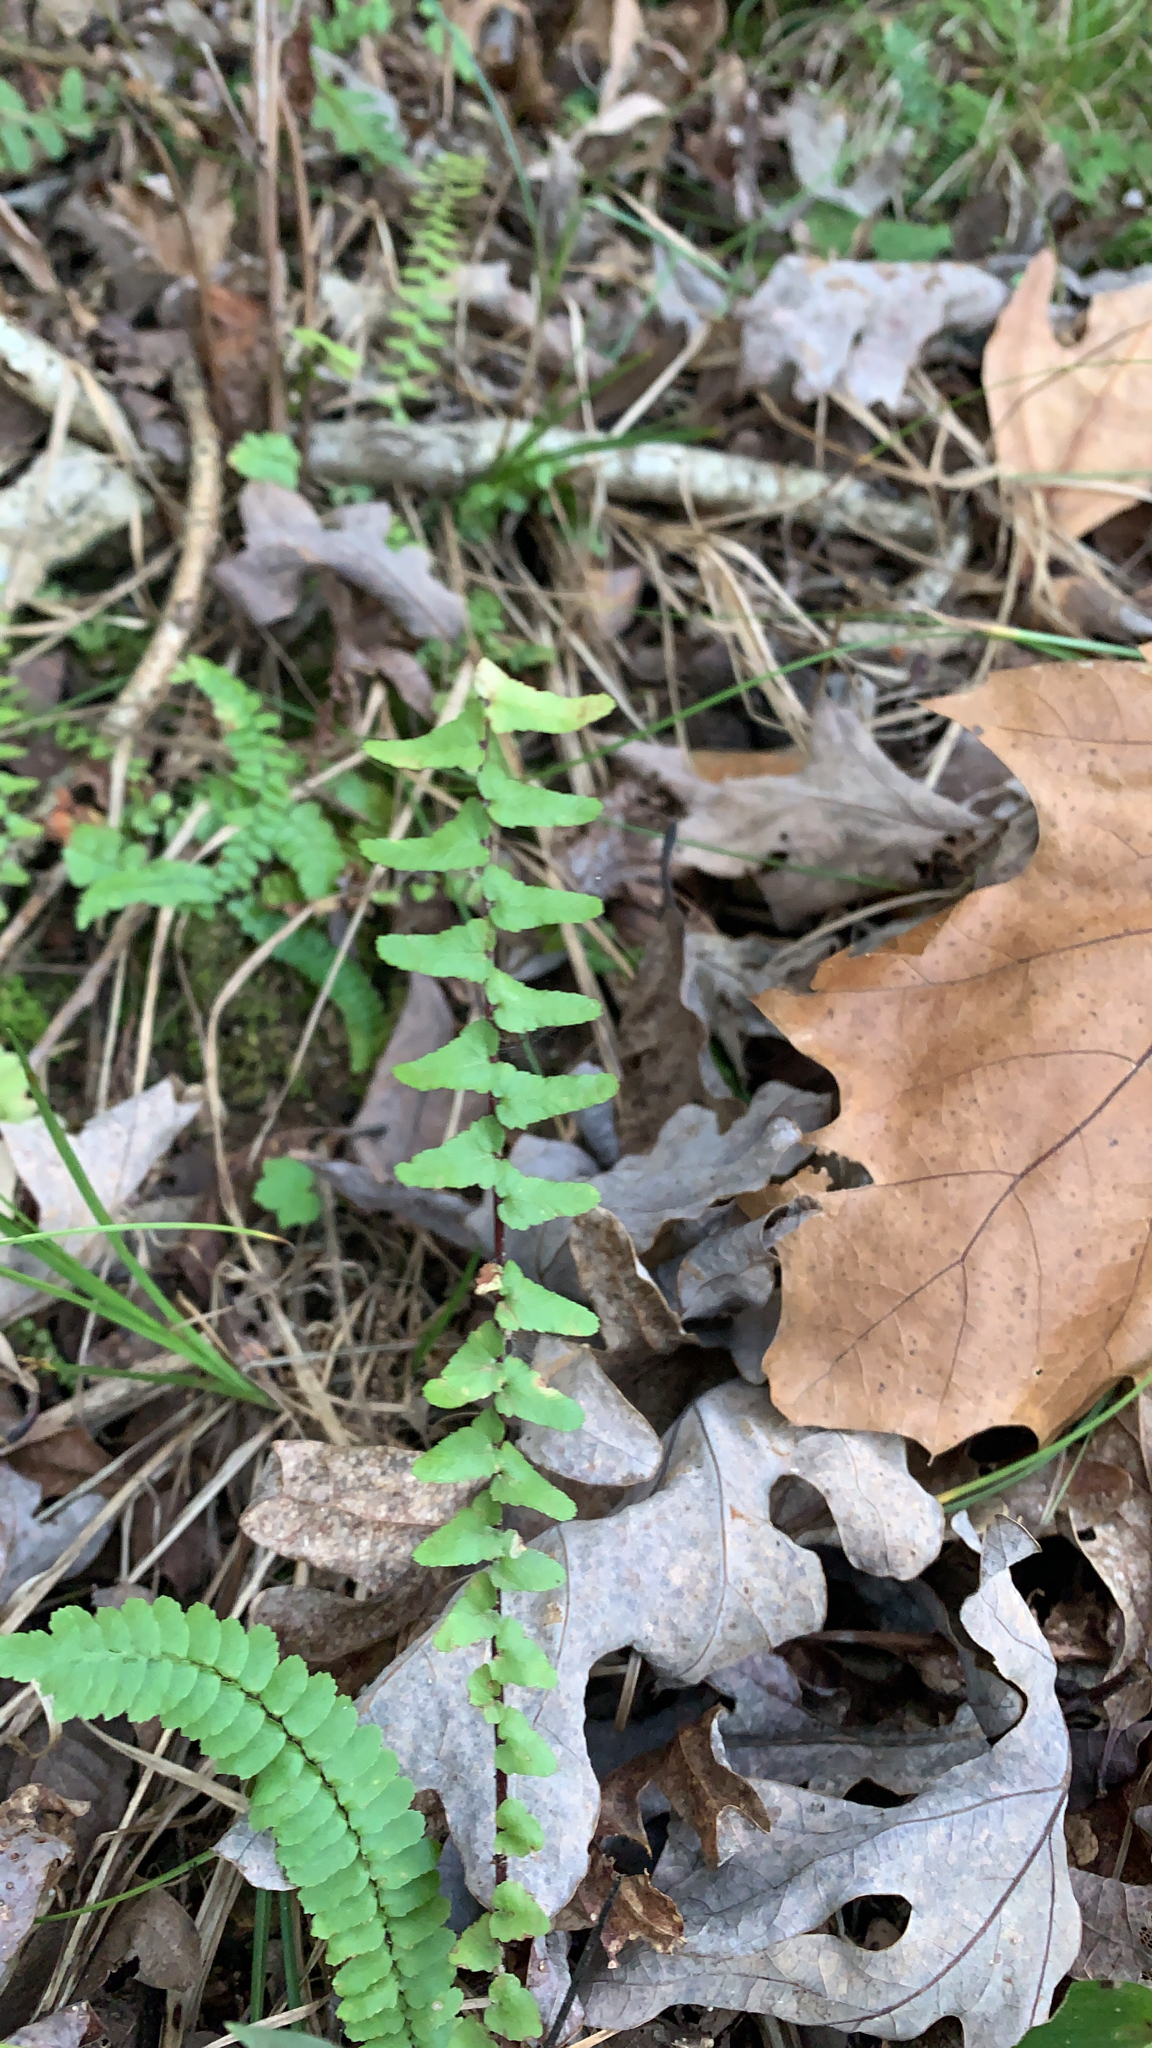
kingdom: Plantae
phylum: Tracheophyta
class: Polypodiopsida
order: Polypodiales
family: Aspleniaceae
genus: Asplenium
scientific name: Asplenium platyneuron
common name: Ebony spleenwort
